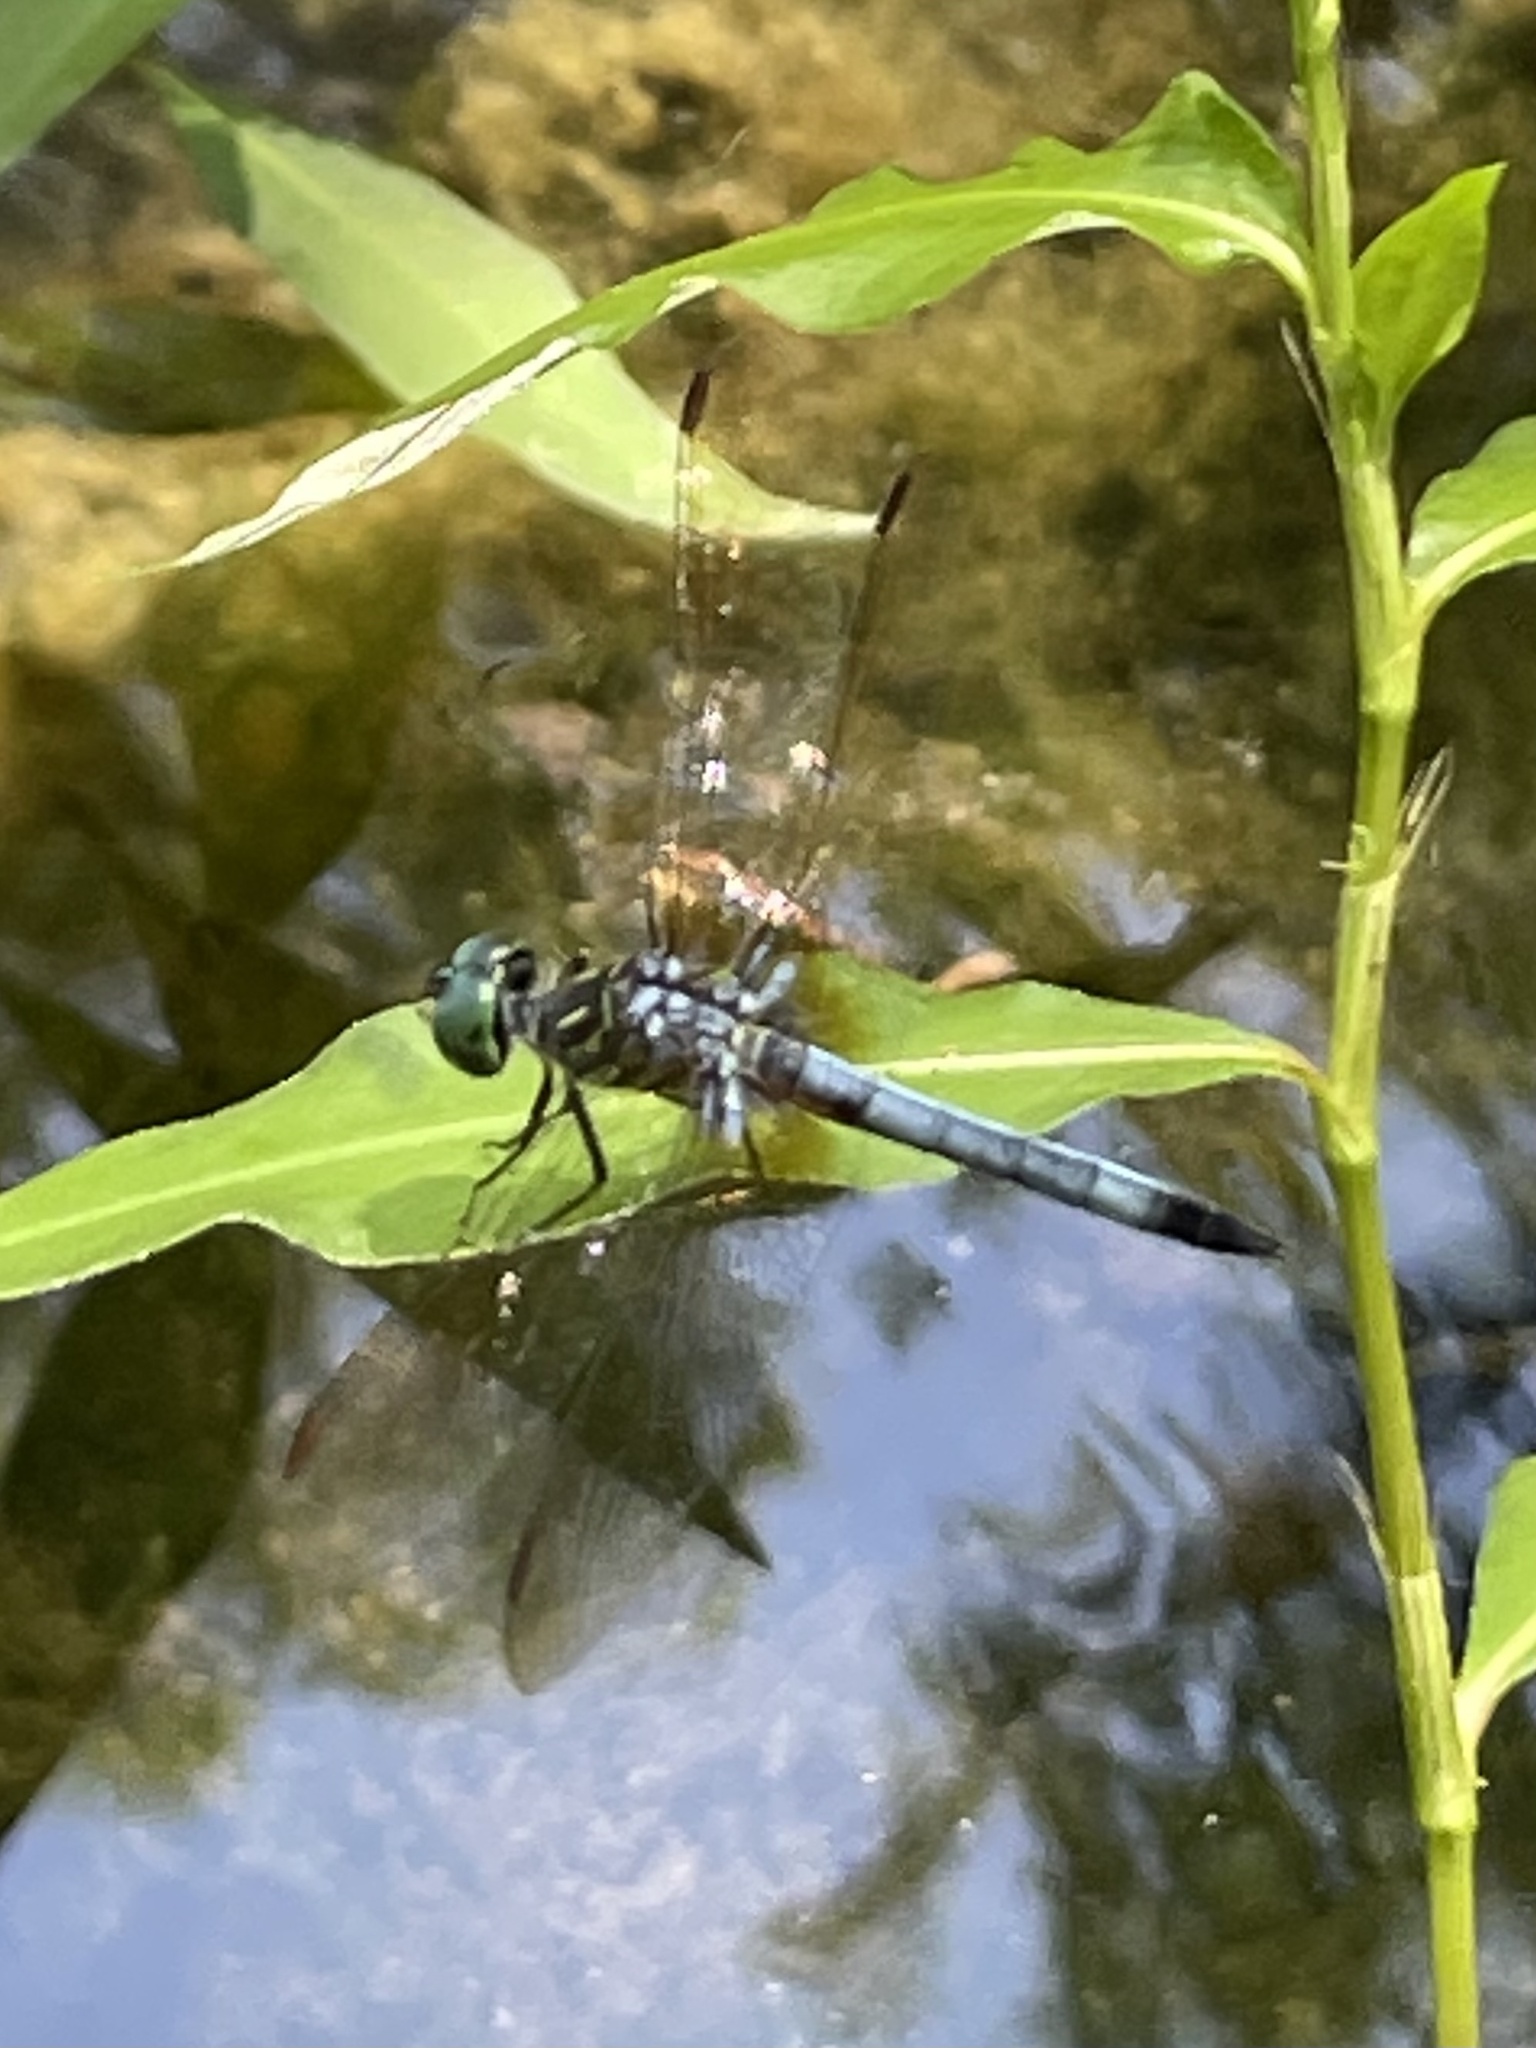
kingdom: Animalia
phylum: Arthropoda
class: Insecta
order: Odonata
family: Libellulidae
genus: Pachydiplax
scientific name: Pachydiplax longipennis
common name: Blue dasher
